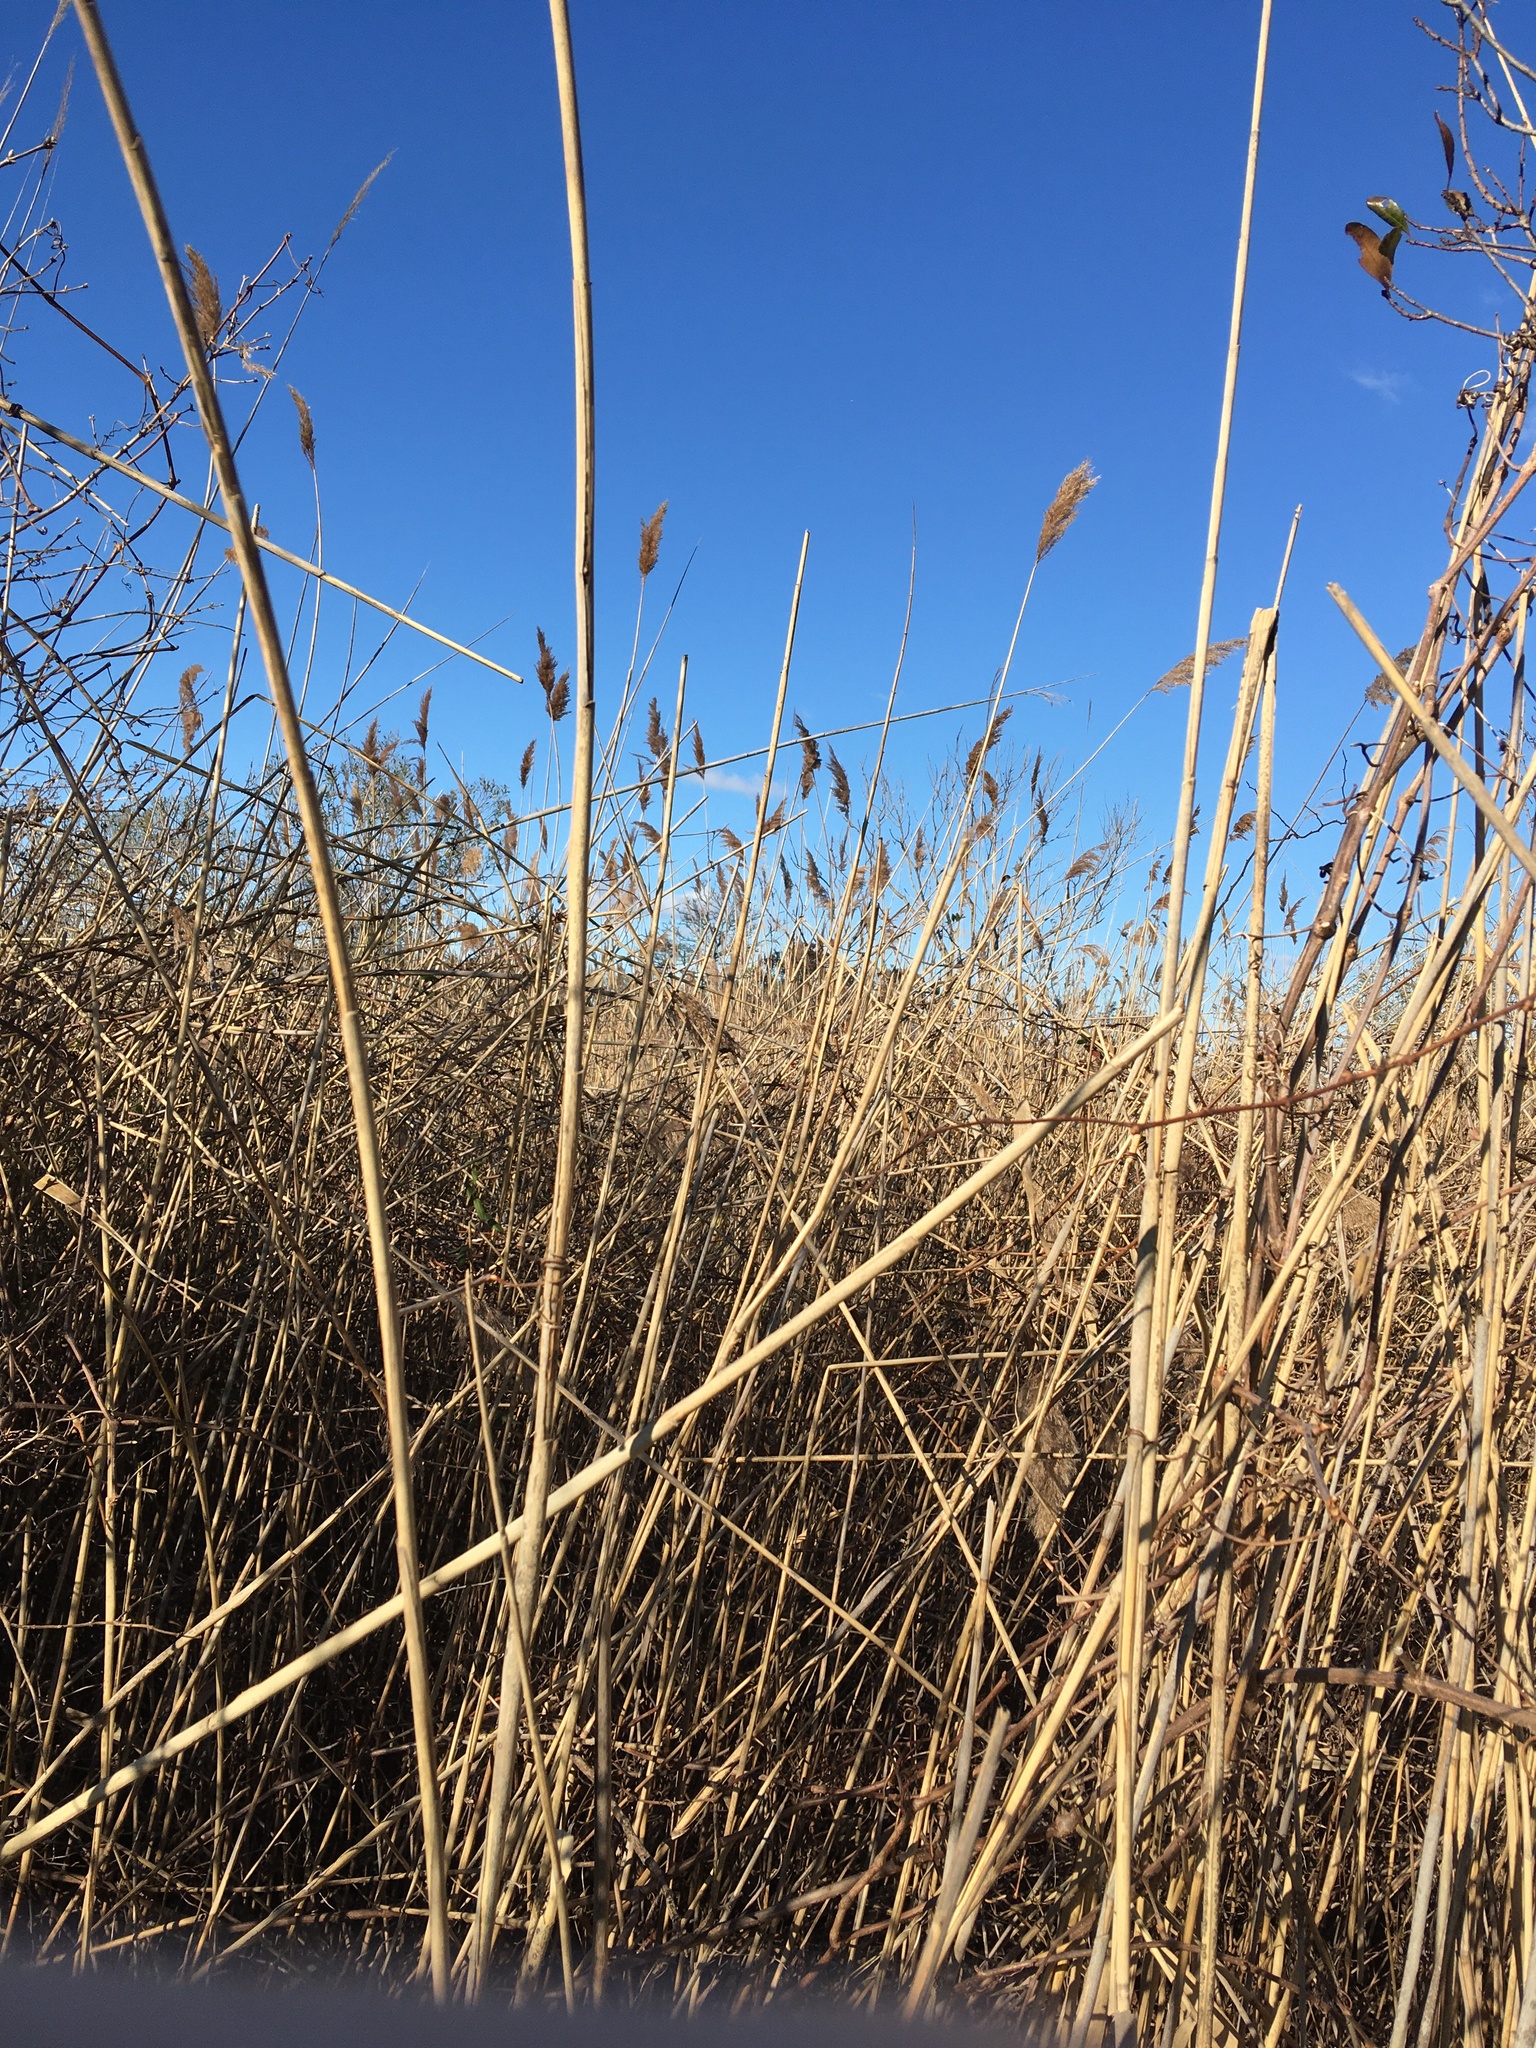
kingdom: Plantae
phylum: Tracheophyta
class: Liliopsida
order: Poales
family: Poaceae
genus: Phragmites
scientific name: Phragmites australis
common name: Common reed
